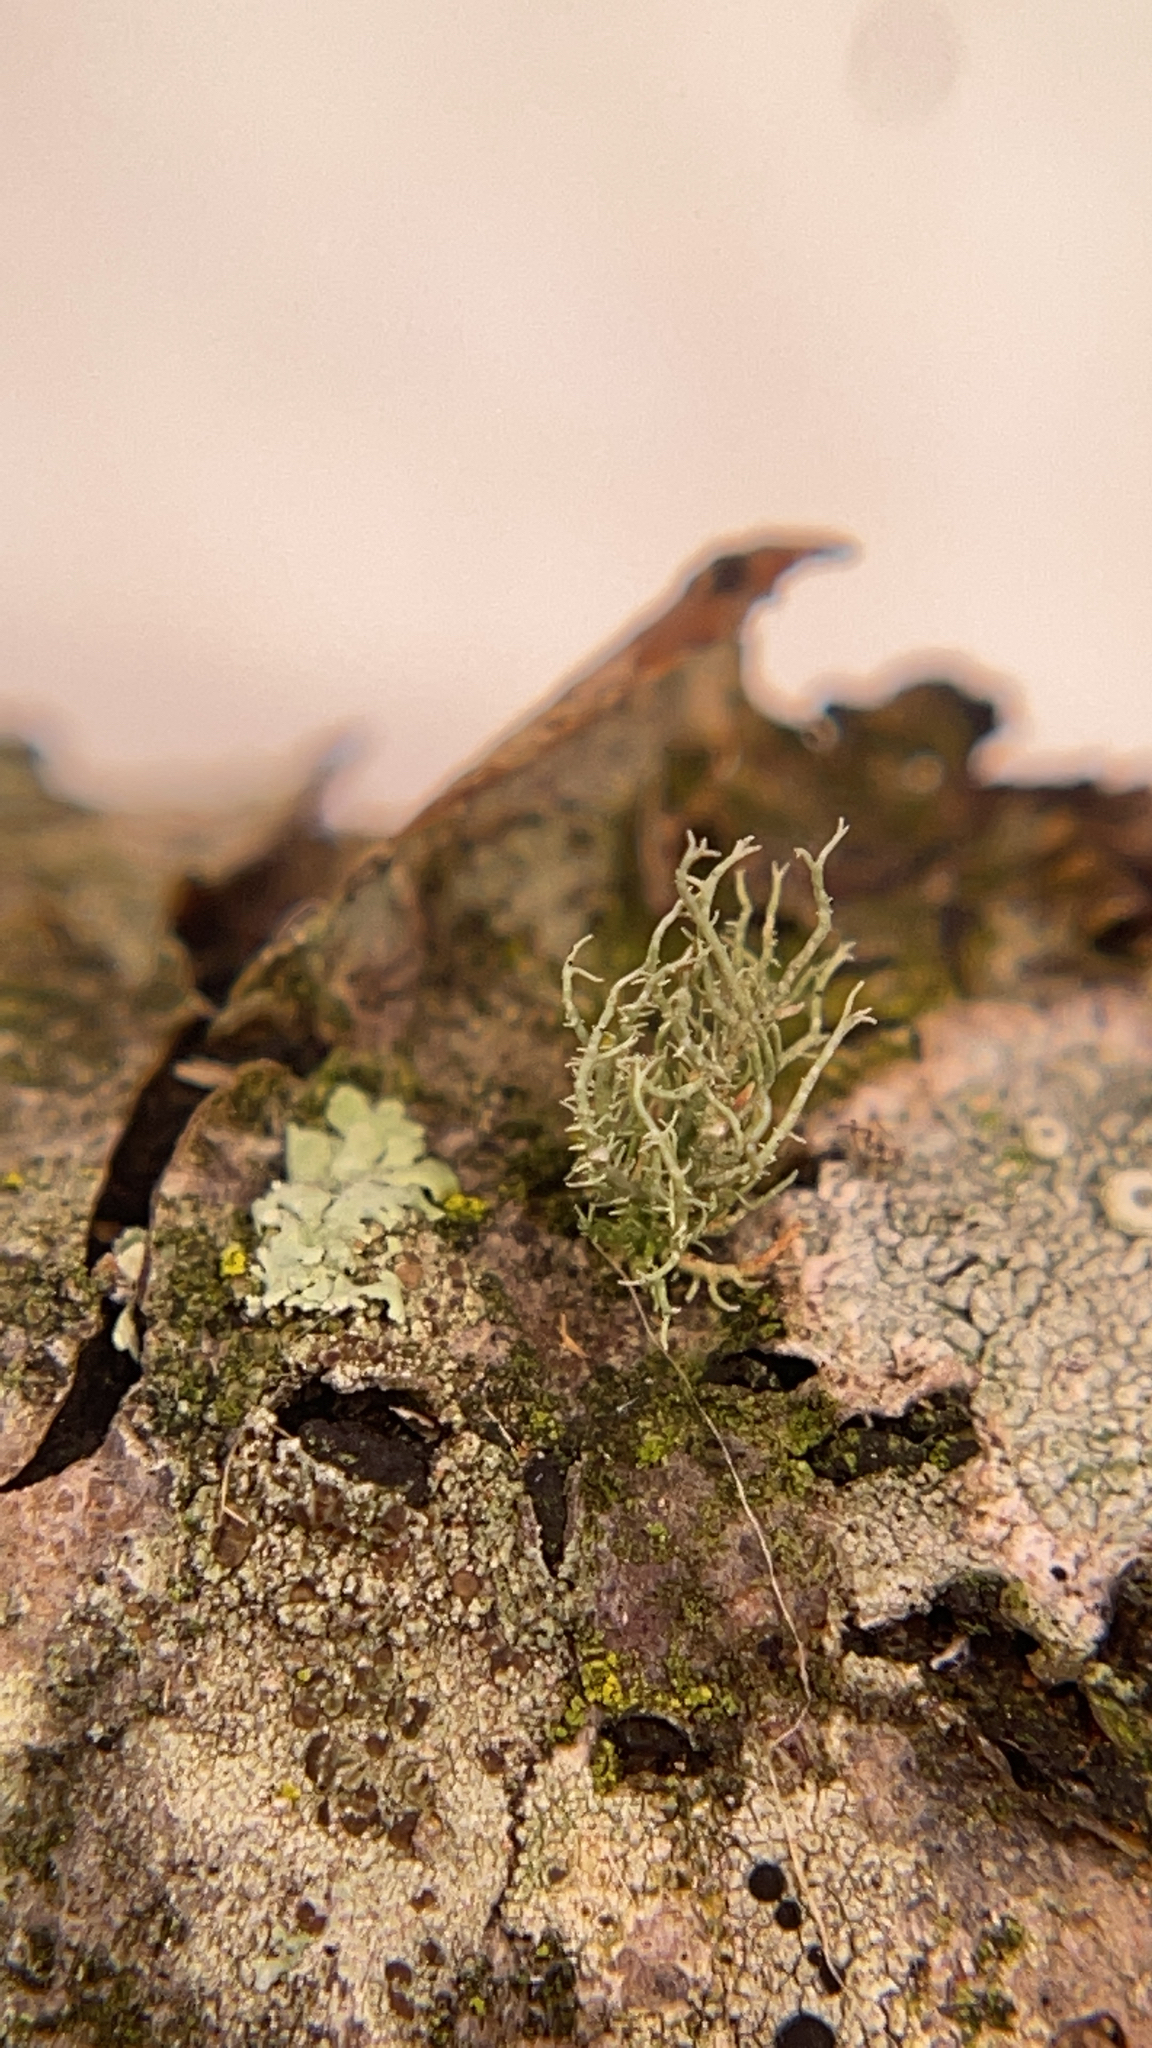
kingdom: Fungi
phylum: Ascomycota
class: Lecanoromycetes
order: Lecanorales
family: Parmeliaceae
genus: Usnea
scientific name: Usnea
